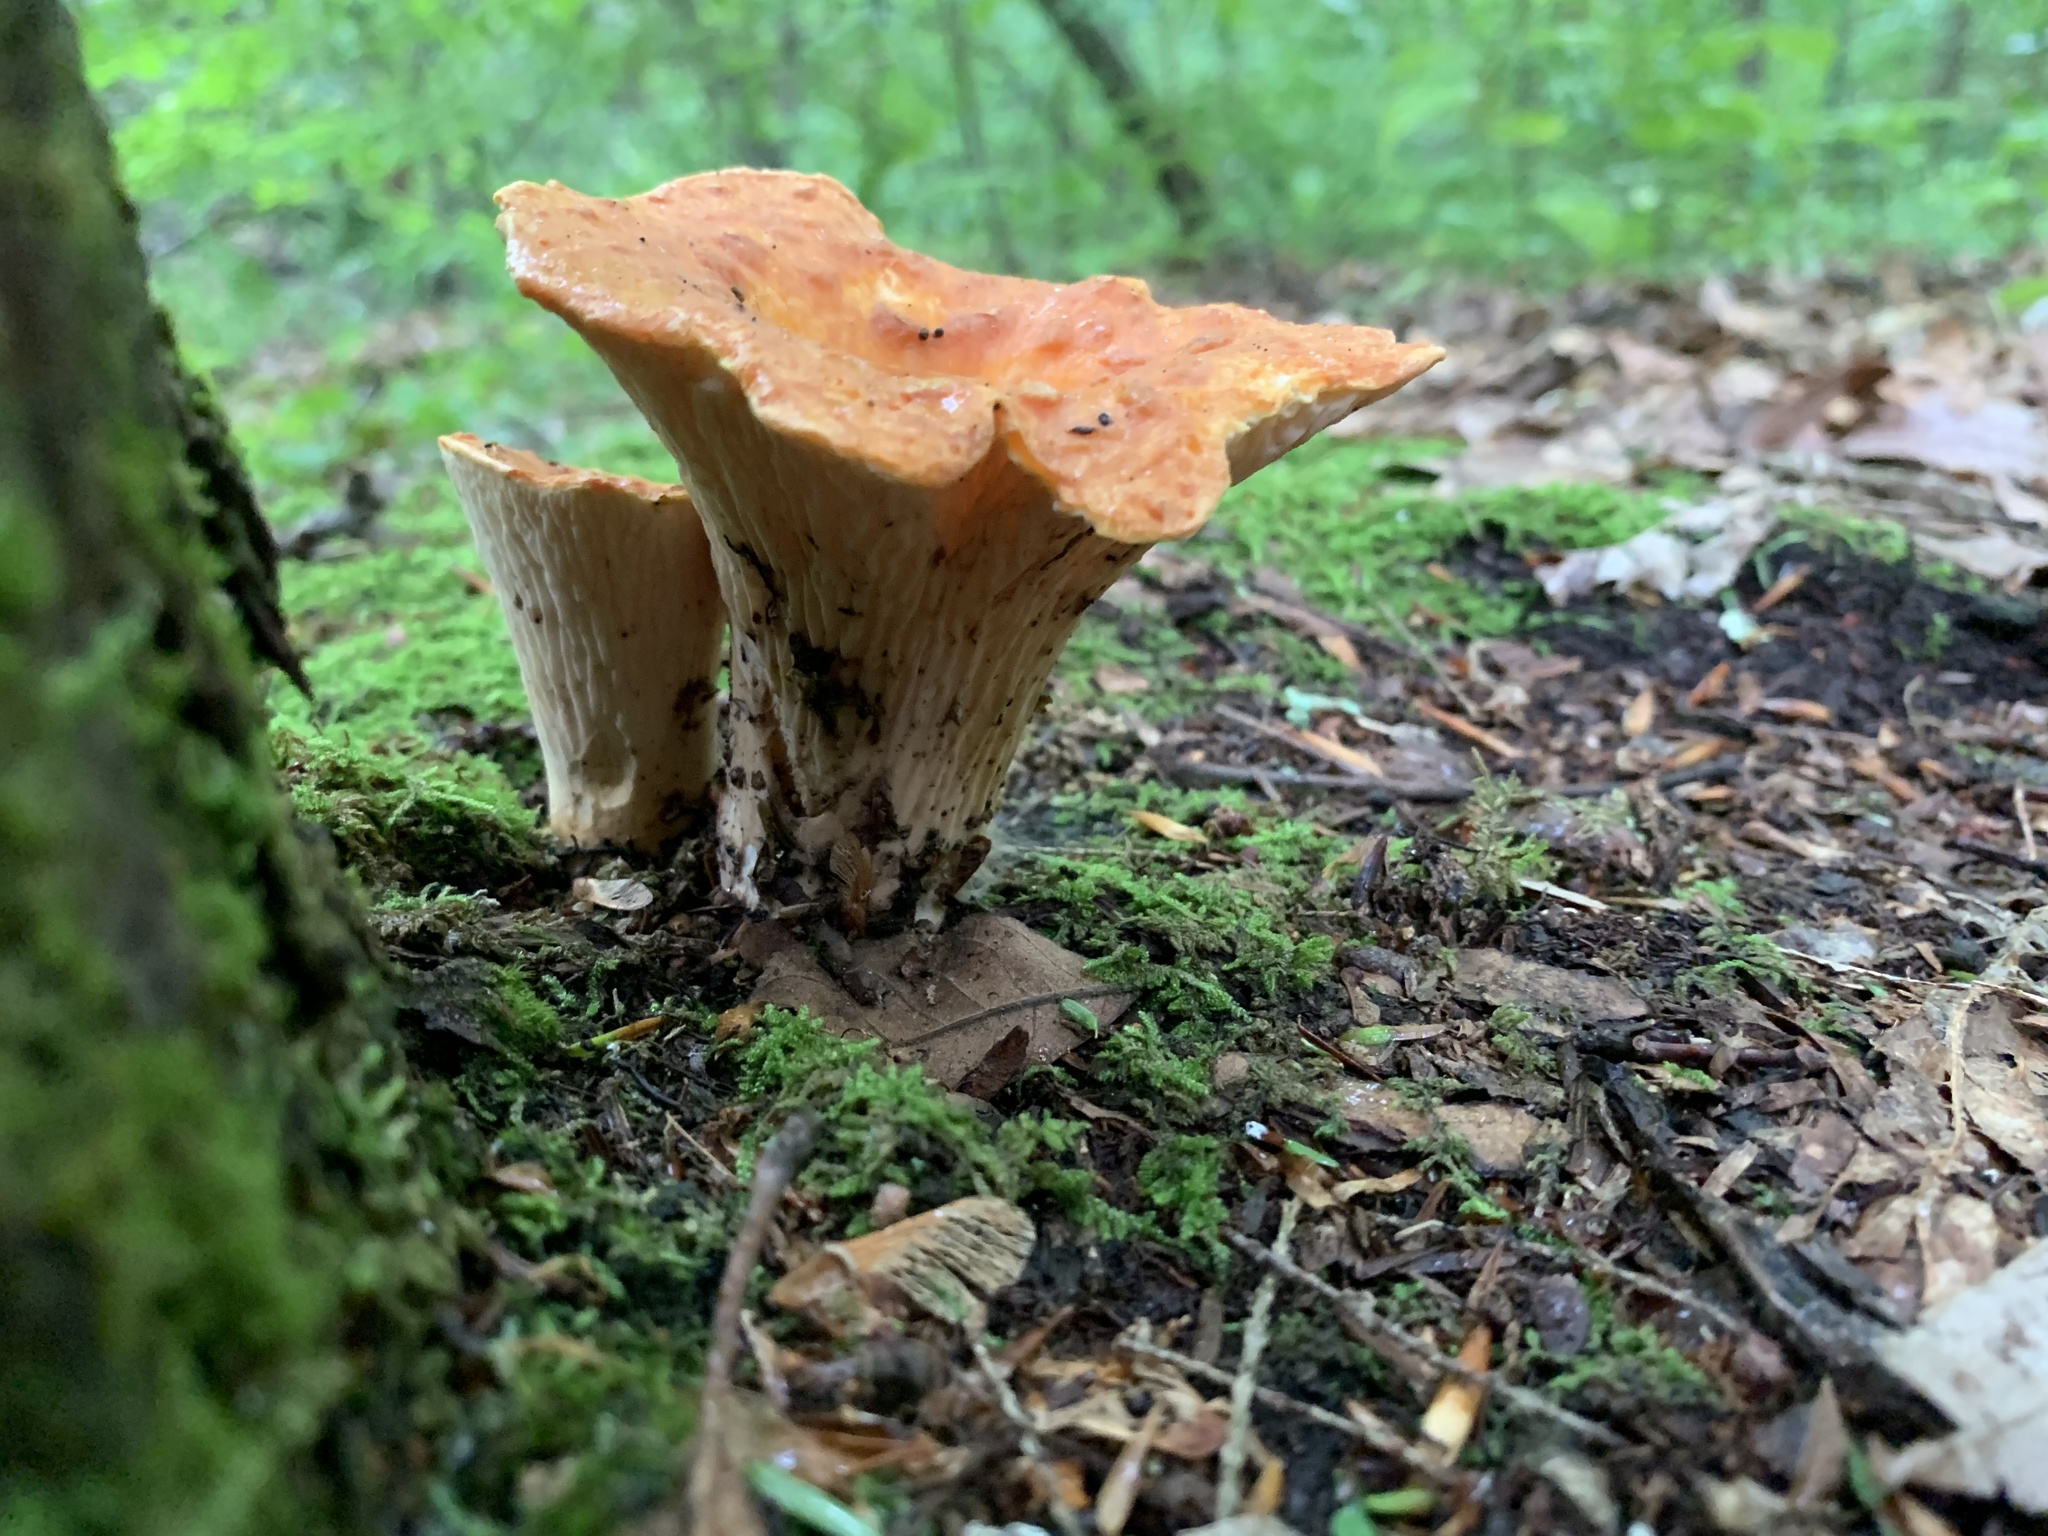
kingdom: Fungi
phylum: Basidiomycota
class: Agaricomycetes
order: Gomphales
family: Gomphaceae
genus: Turbinellus
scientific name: Turbinellus floccosus
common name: Scaly chanterelle
